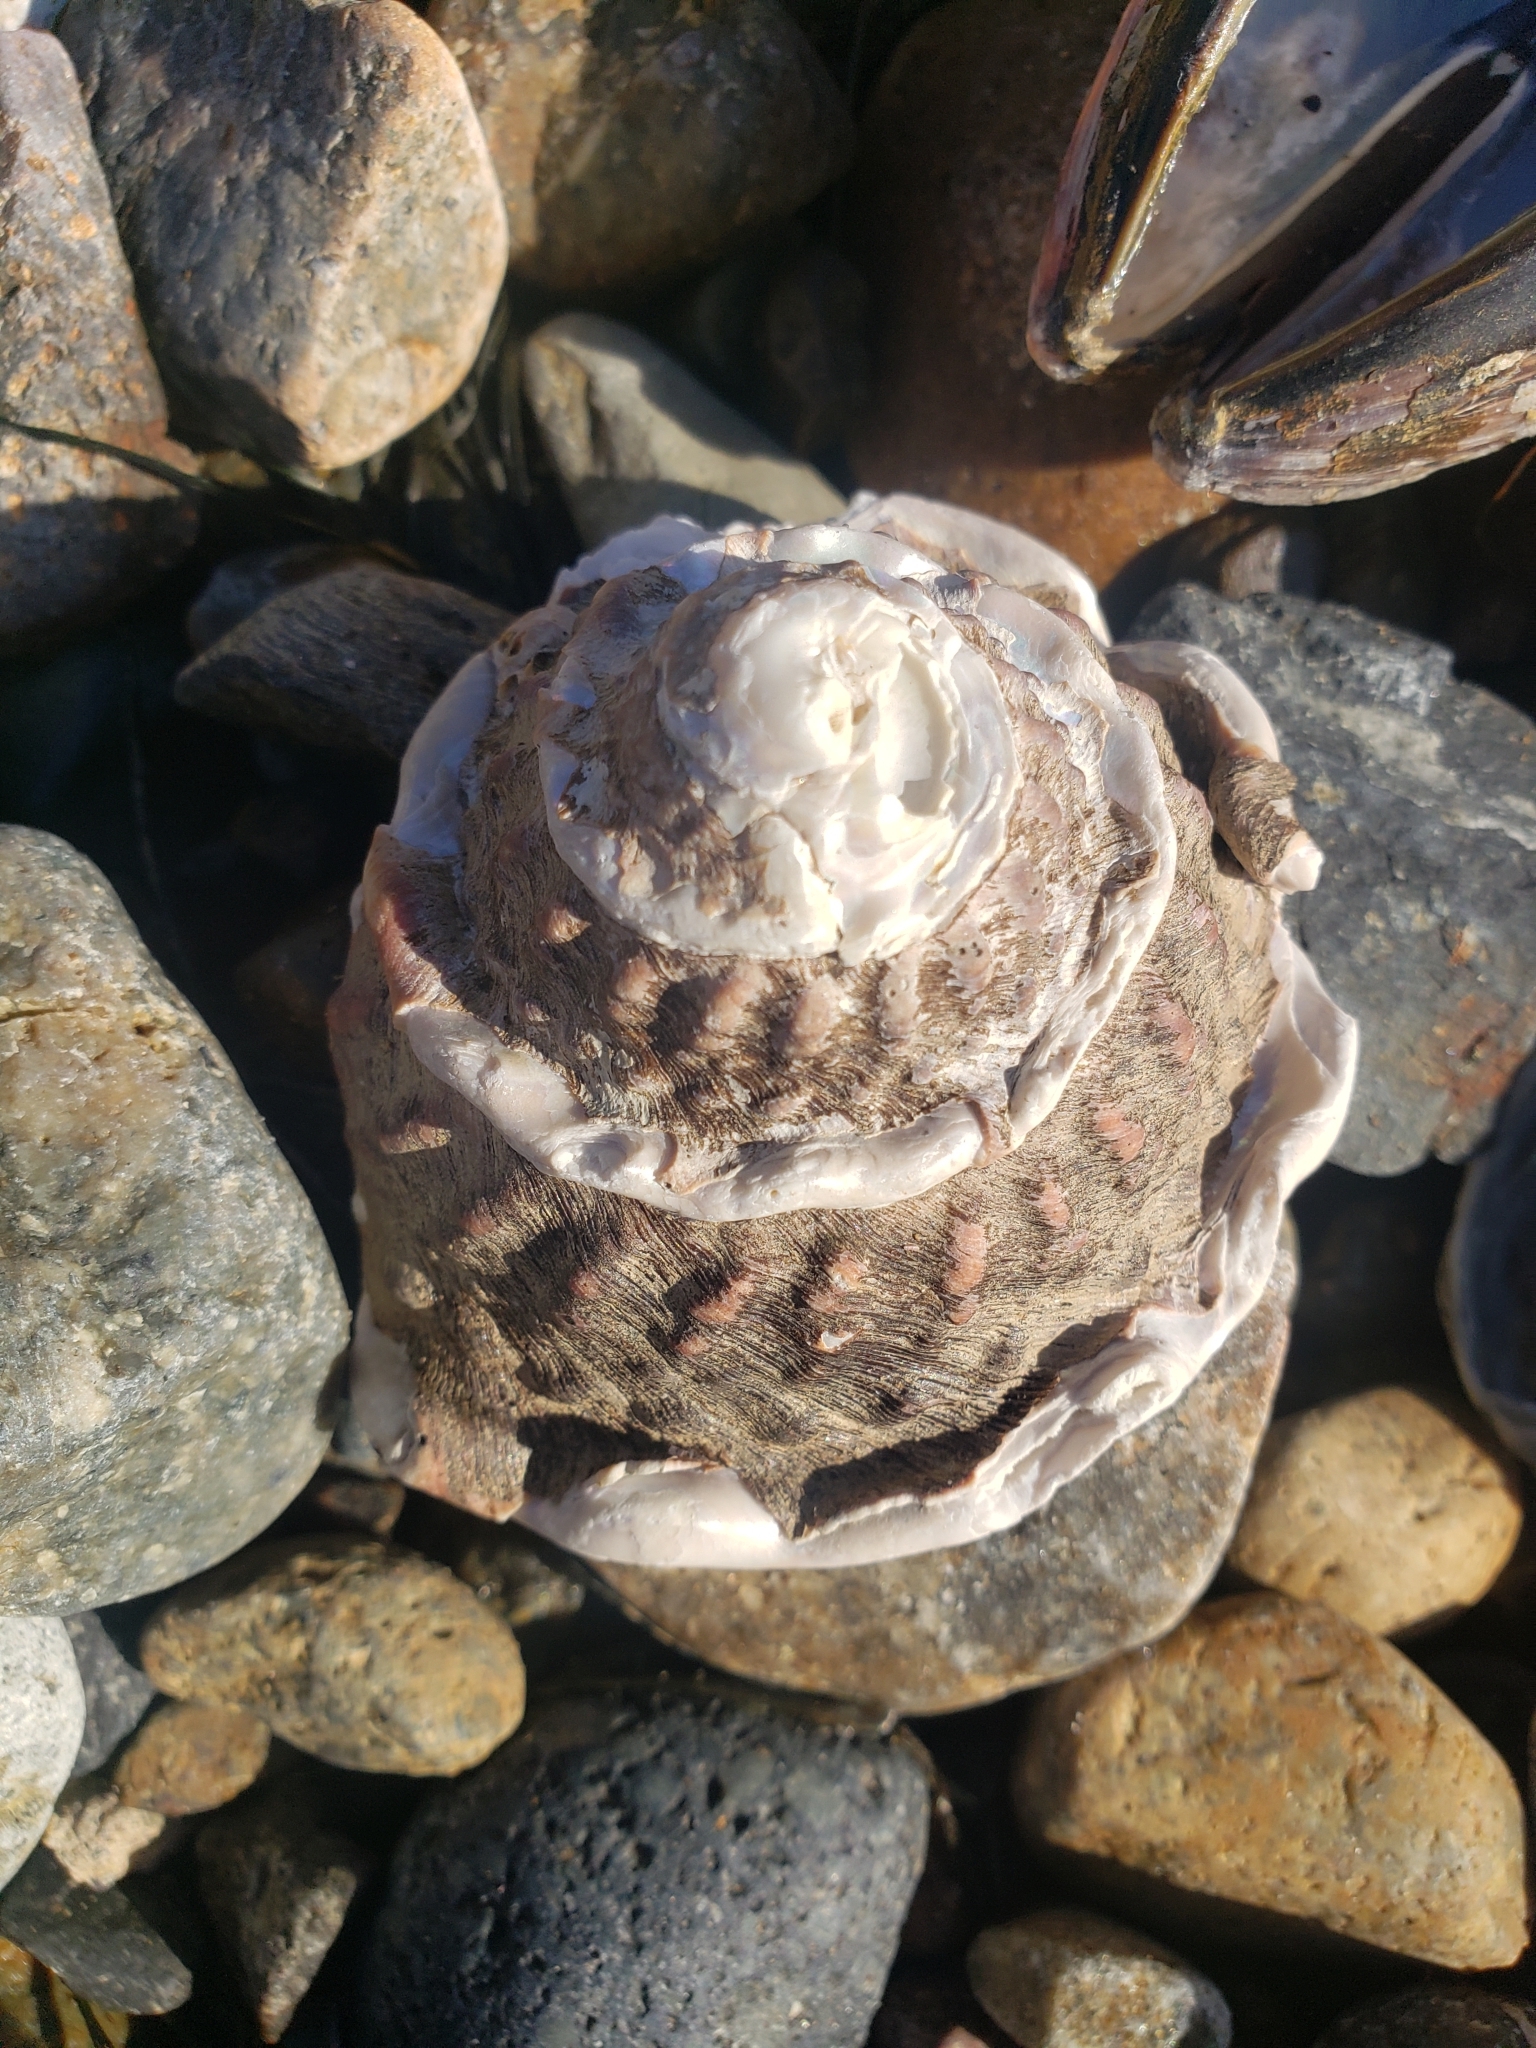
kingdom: Animalia
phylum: Mollusca
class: Gastropoda
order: Trochida
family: Turbinidae
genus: Megastraea
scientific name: Megastraea undosa
